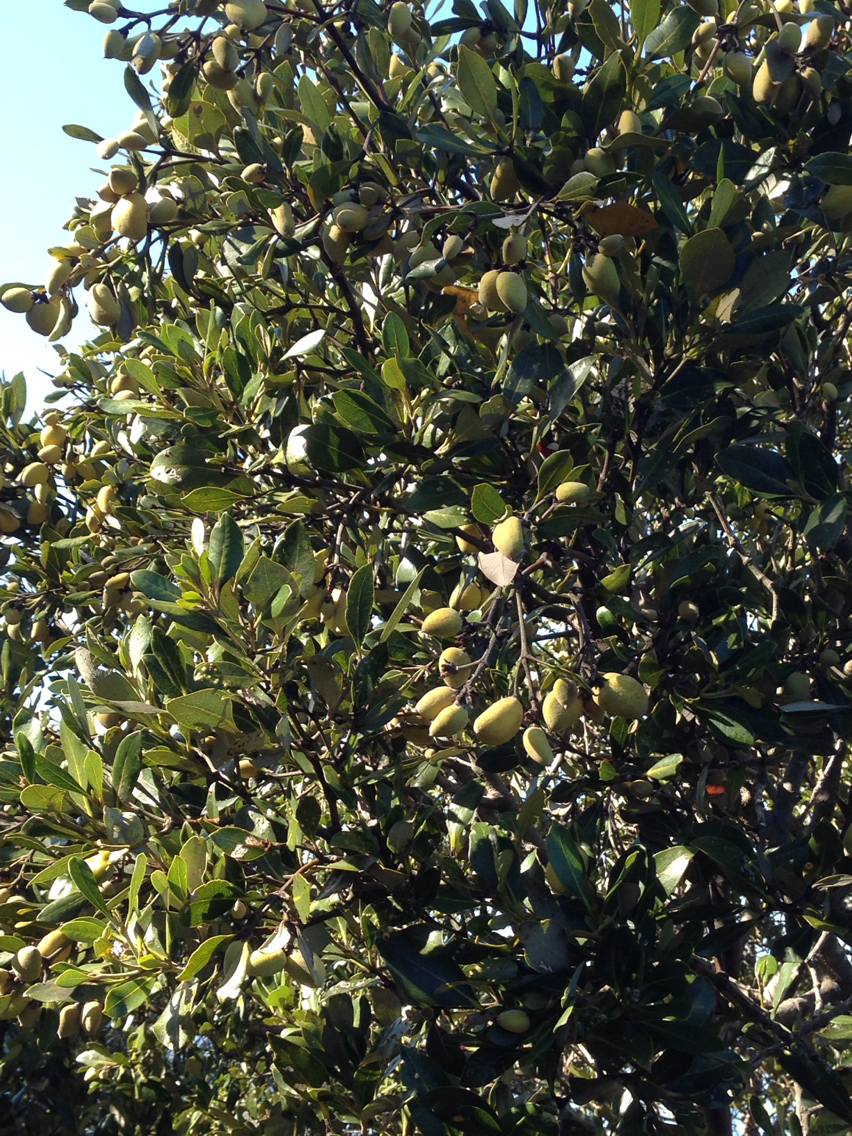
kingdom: Plantae
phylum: Tracheophyta
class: Magnoliopsida
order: Lamiales
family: Acanthaceae
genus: Avicennia
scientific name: Avicennia marina
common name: Gray mangrove
